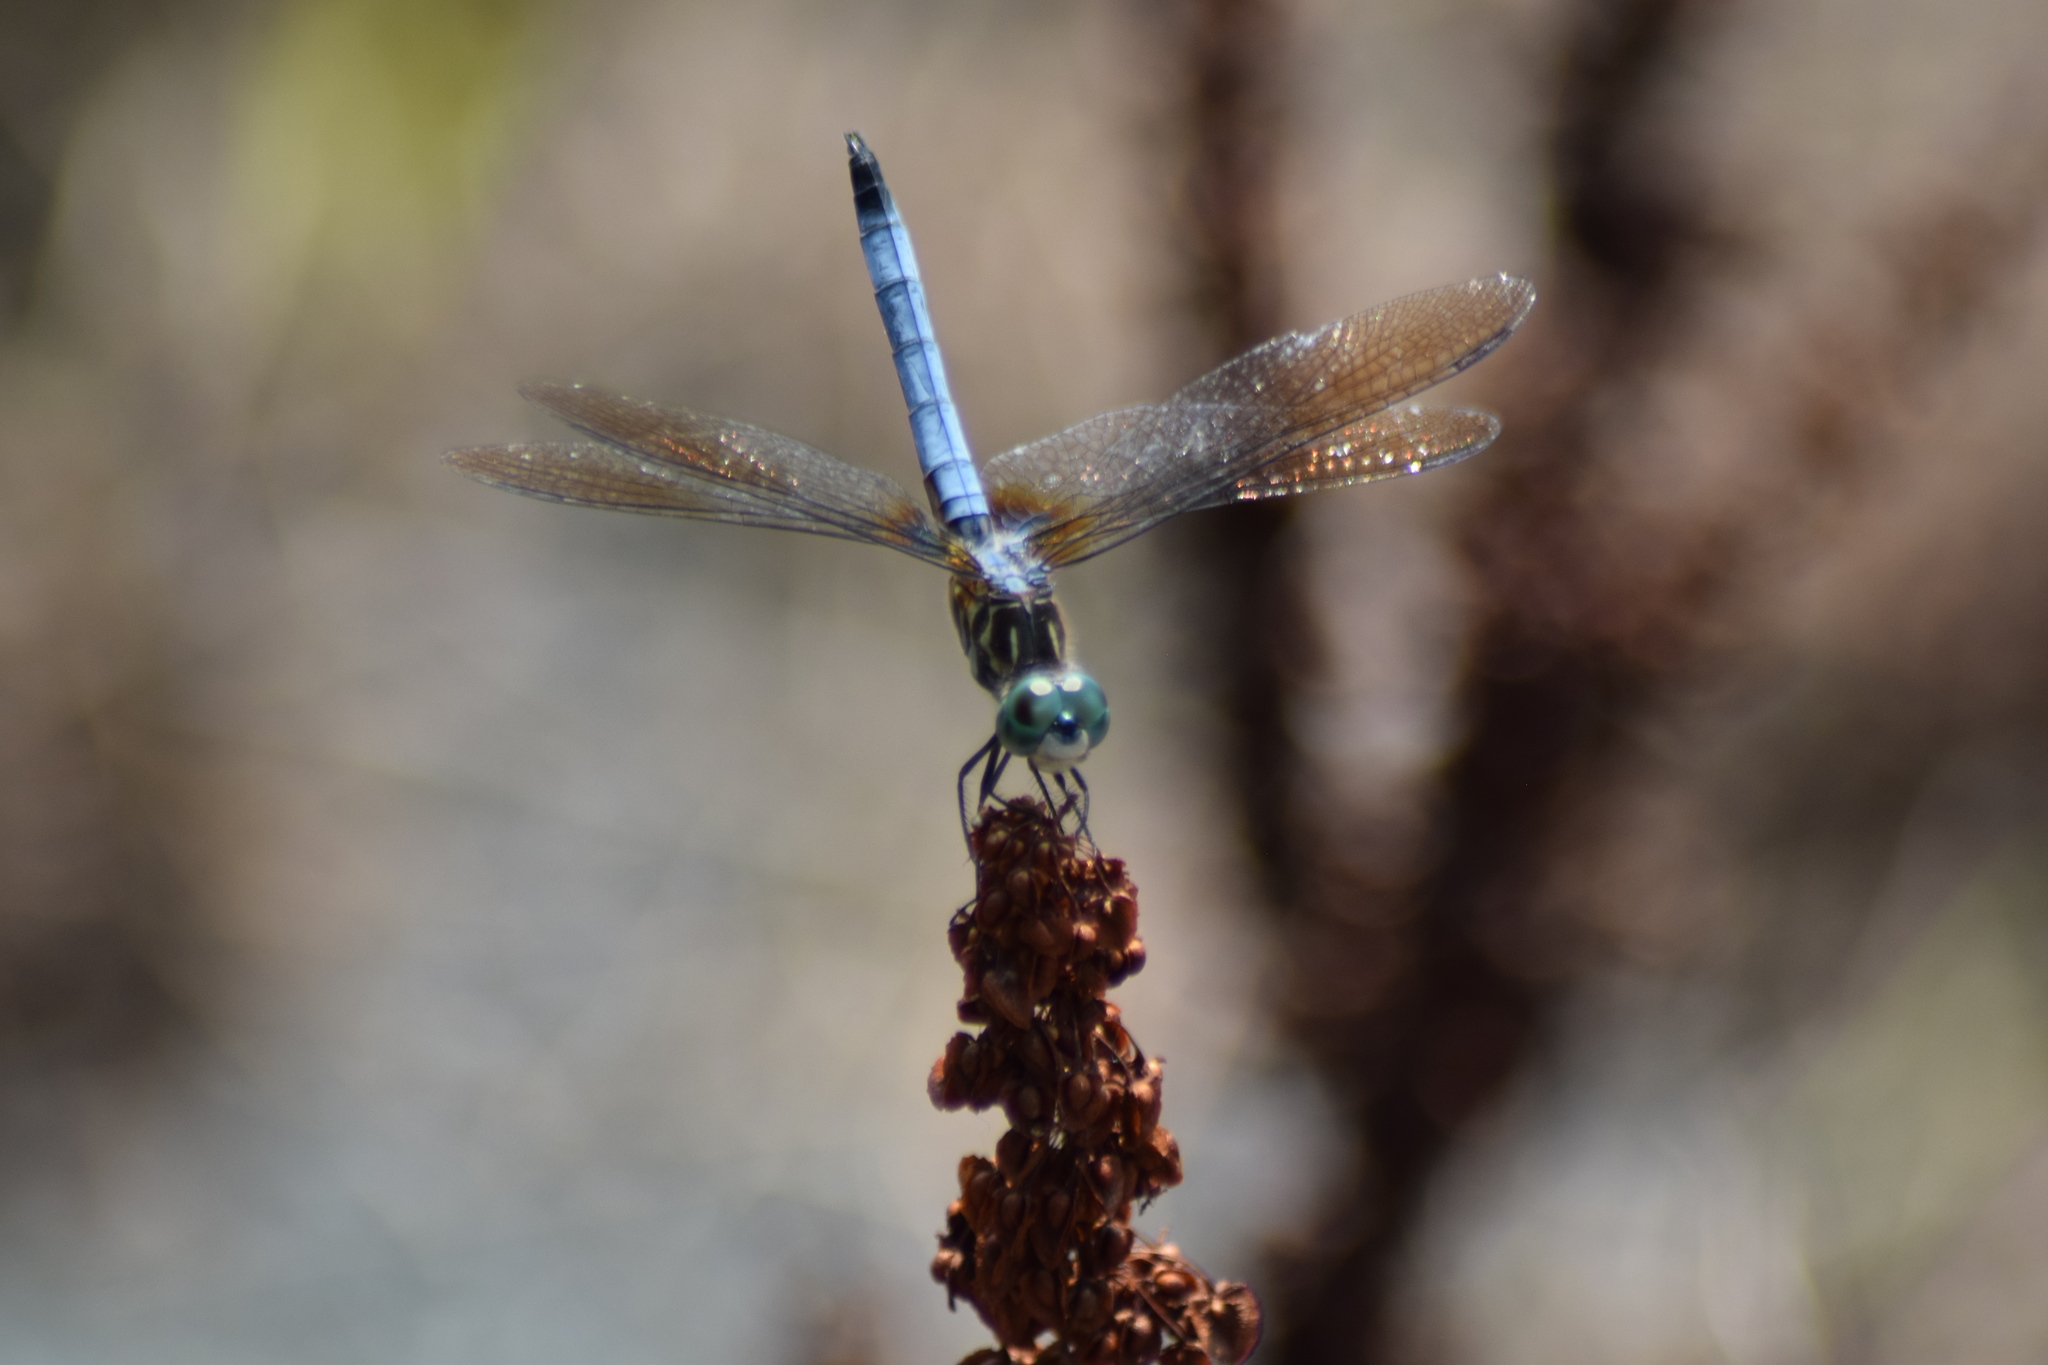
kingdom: Animalia
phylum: Arthropoda
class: Insecta
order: Odonata
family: Libellulidae
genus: Pachydiplax
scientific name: Pachydiplax longipennis
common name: Blue dasher
